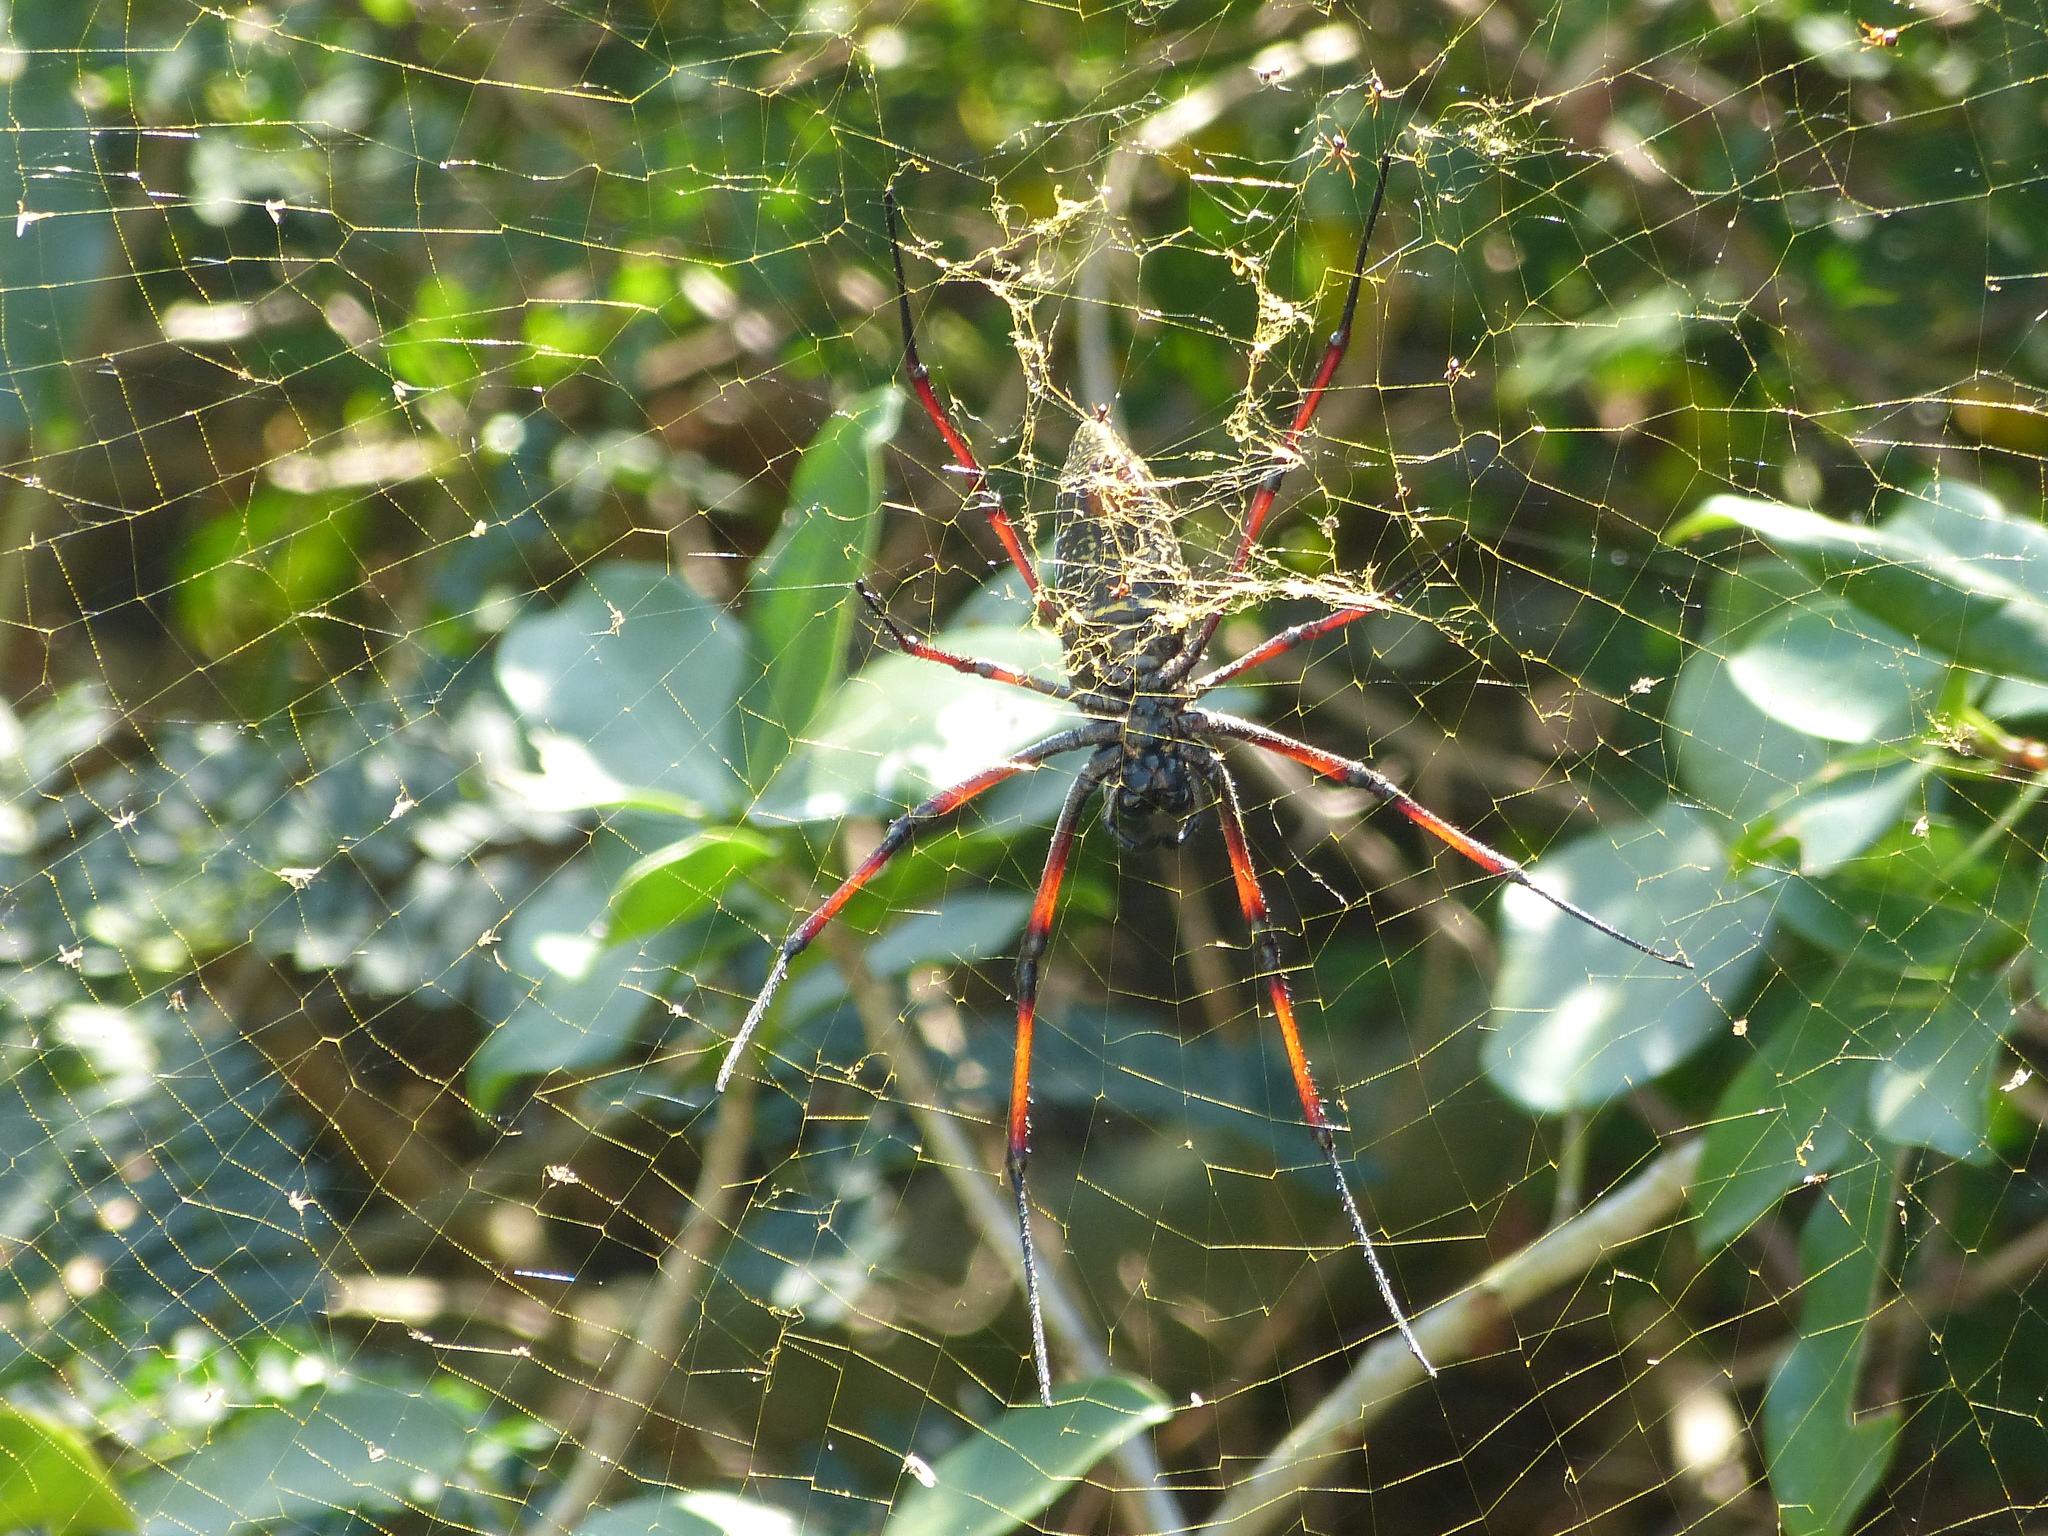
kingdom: Animalia
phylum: Arthropoda
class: Arachnida
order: Araneae
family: Araneidae
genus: Trichonephila
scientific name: Trichonephila inaurata
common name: Red-legged golden orb weaver
